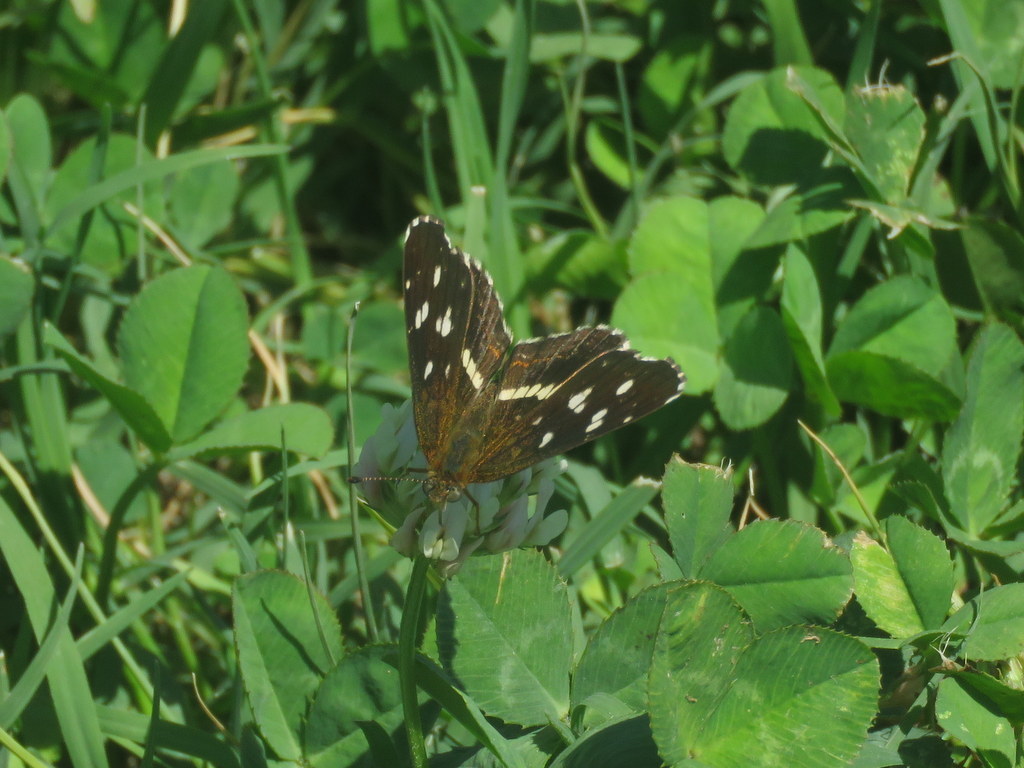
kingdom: Animalia
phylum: Arthropoda
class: Insecta
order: Lepidoptera
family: Nymphalidae
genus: Ortilia
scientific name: Ortilia ithra
